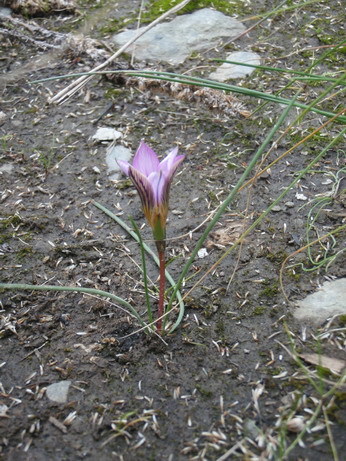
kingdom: Plantae
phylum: Tracheophyta
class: Liliopsida
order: Asparagales
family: Iridaceae
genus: Romulea
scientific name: Romulea rosea
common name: Oniongrass
